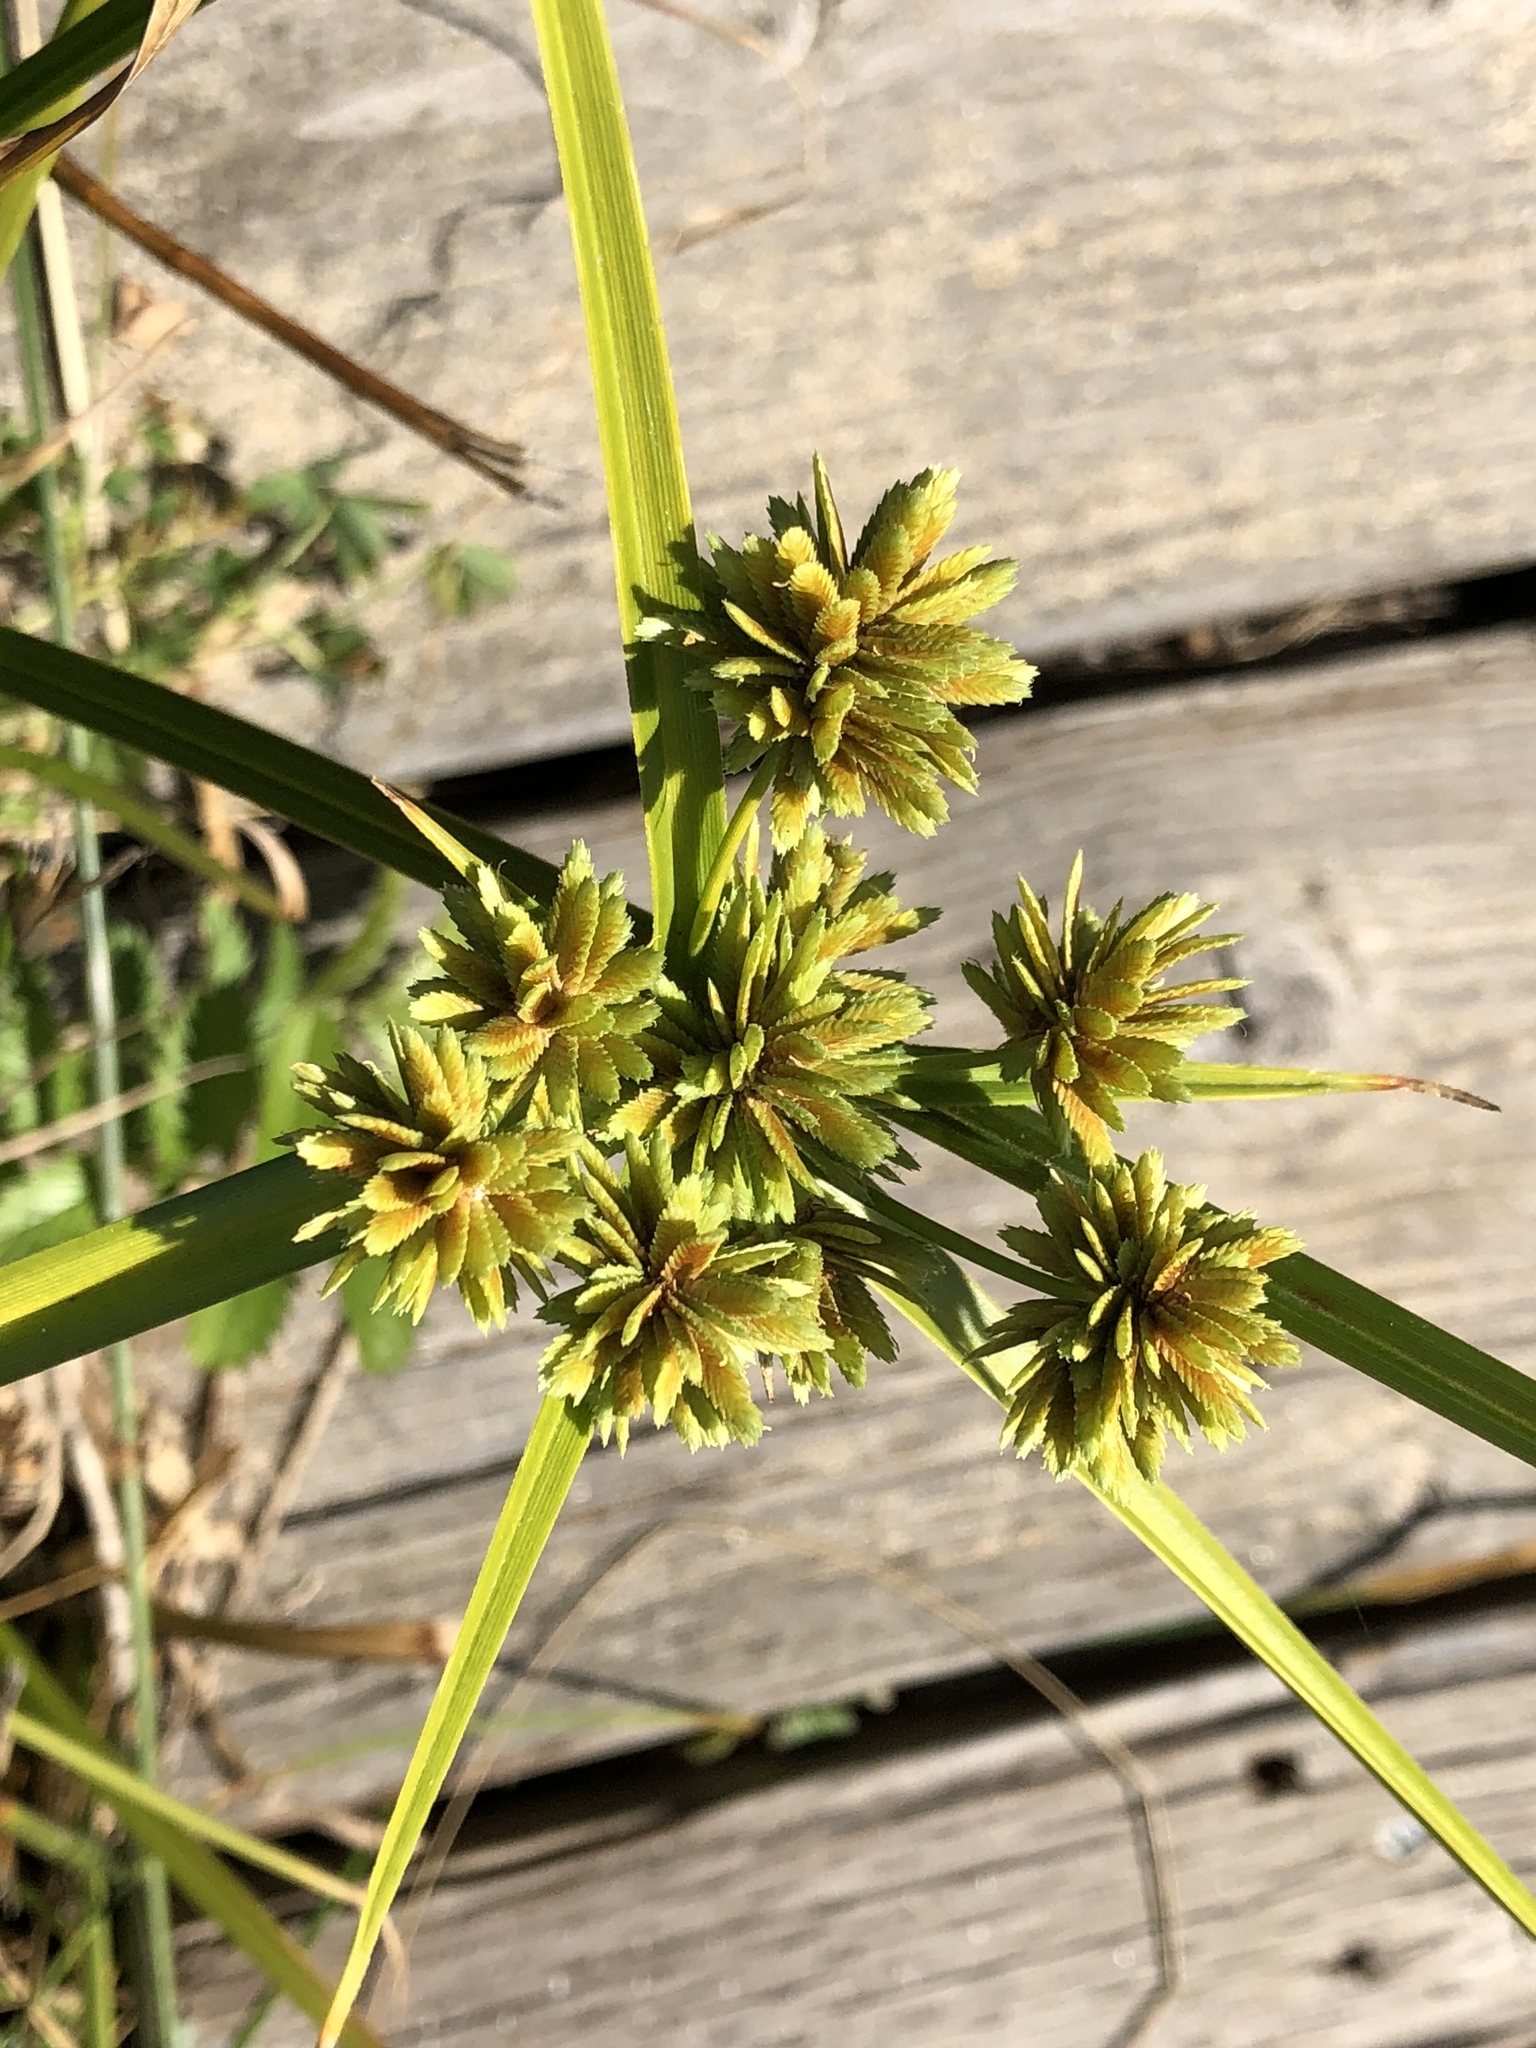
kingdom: Plantae
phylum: Tracheophyta
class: Liliopsida
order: Poales
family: Cyperaceae
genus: Cyperus
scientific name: Cyperus eragrostis
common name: Tall flatsedge
